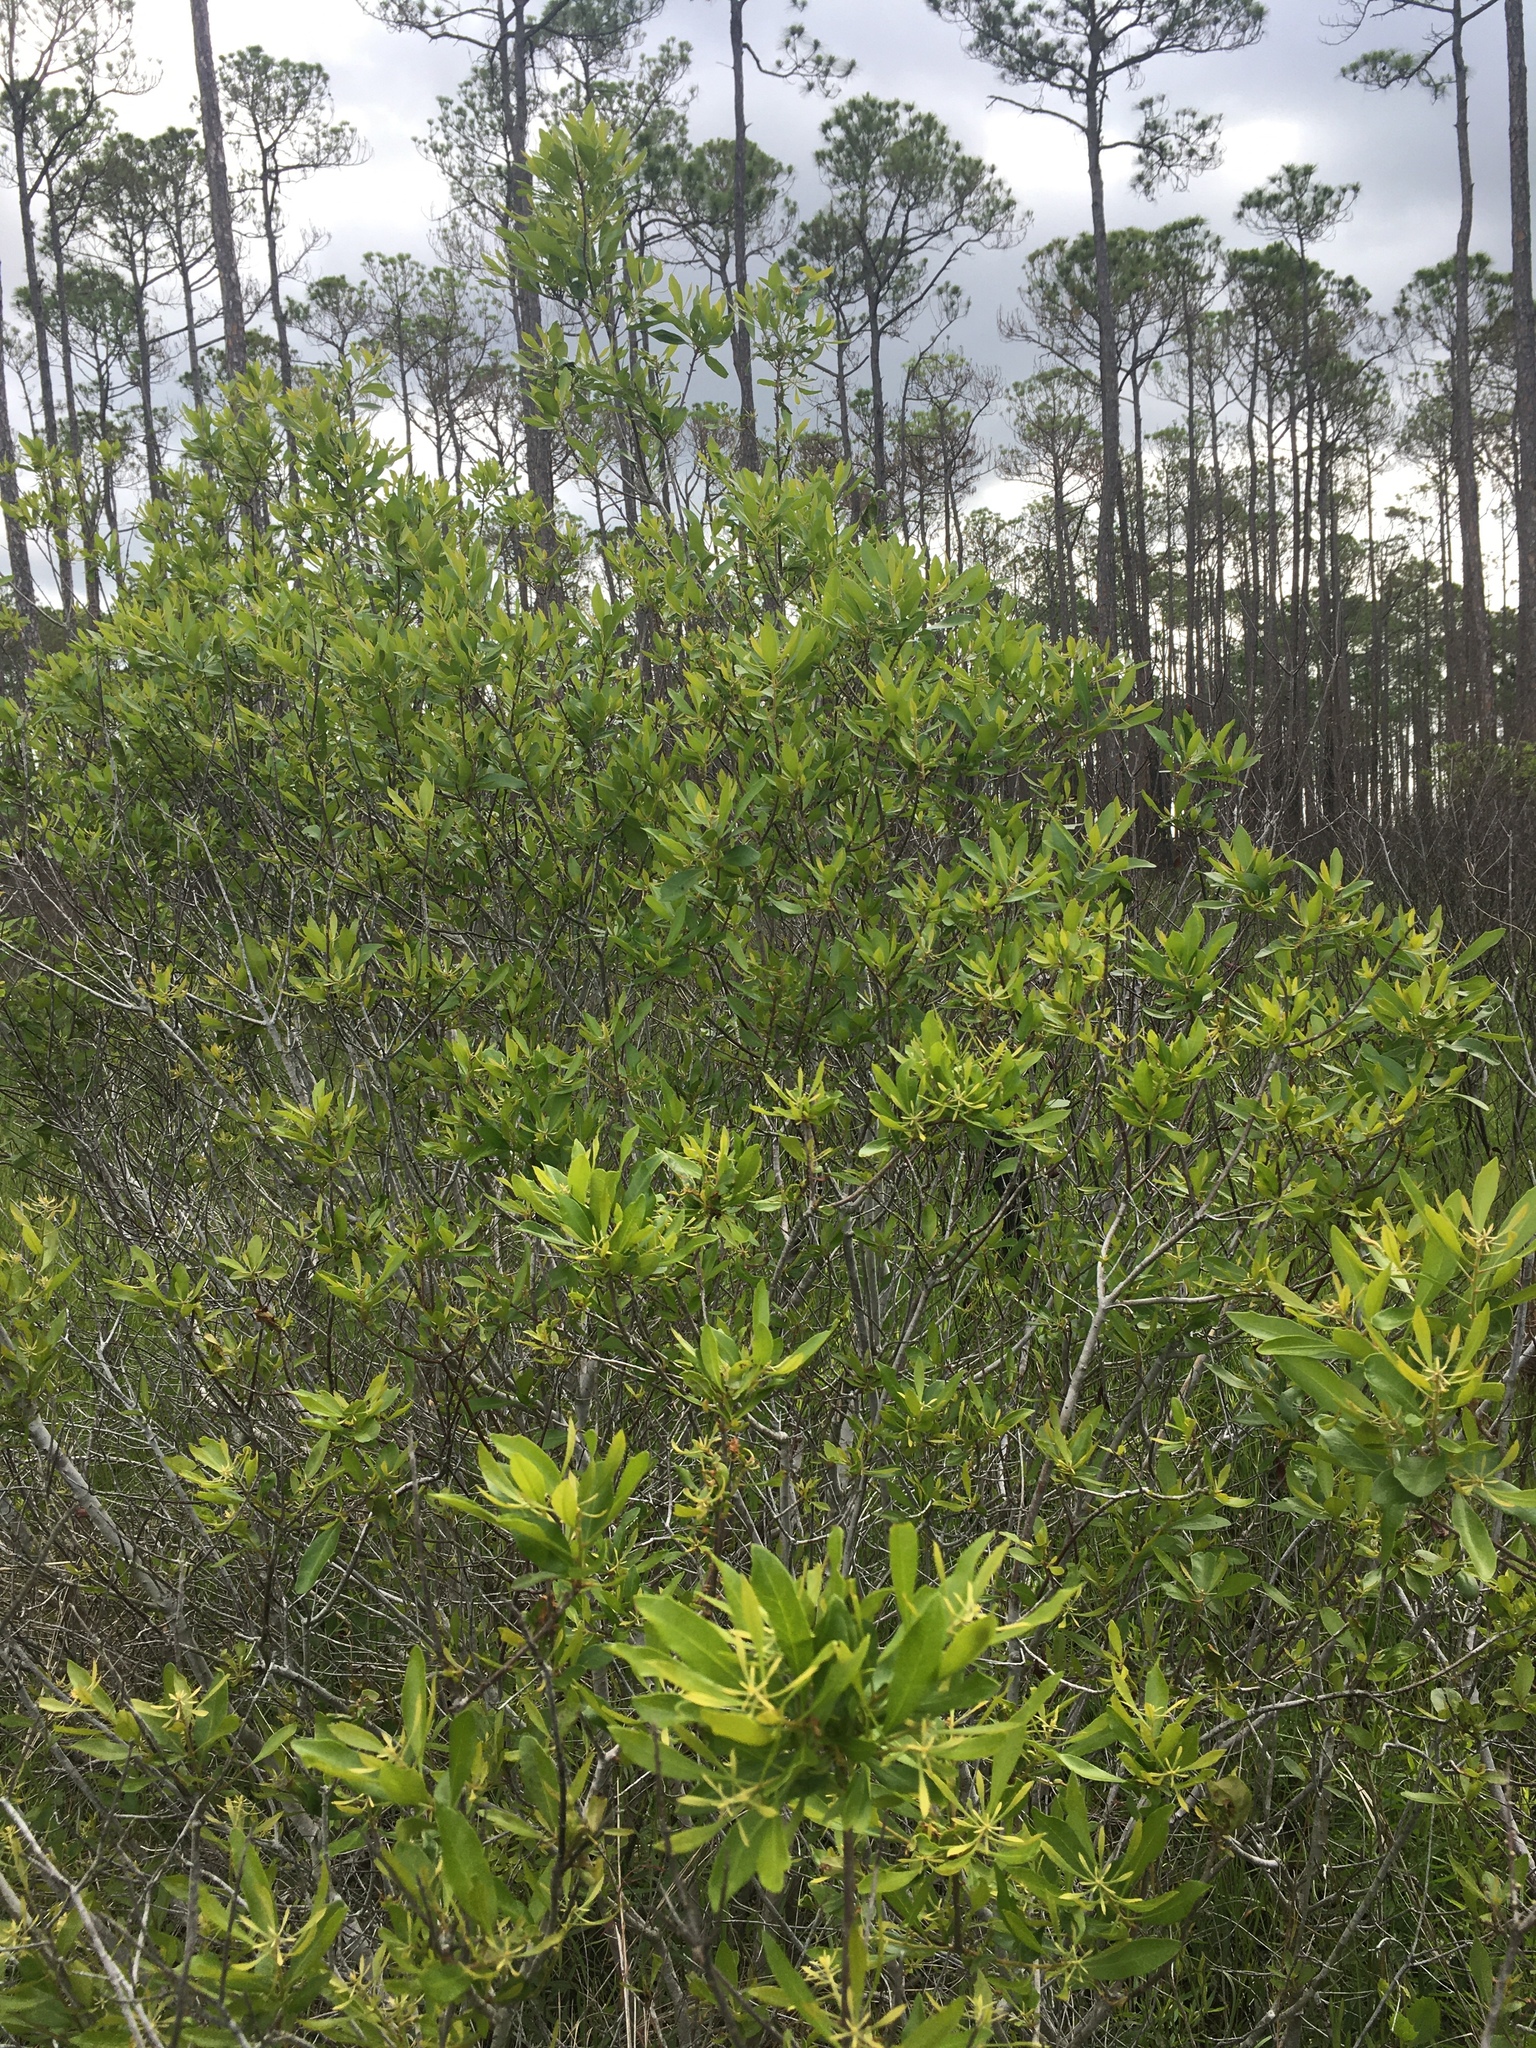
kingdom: Plantae
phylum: Tracheophyta
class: Magnoliopsida
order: Fagales
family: Myricaceae
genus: Morella
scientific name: Morella cerifera
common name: Wax myrtle
